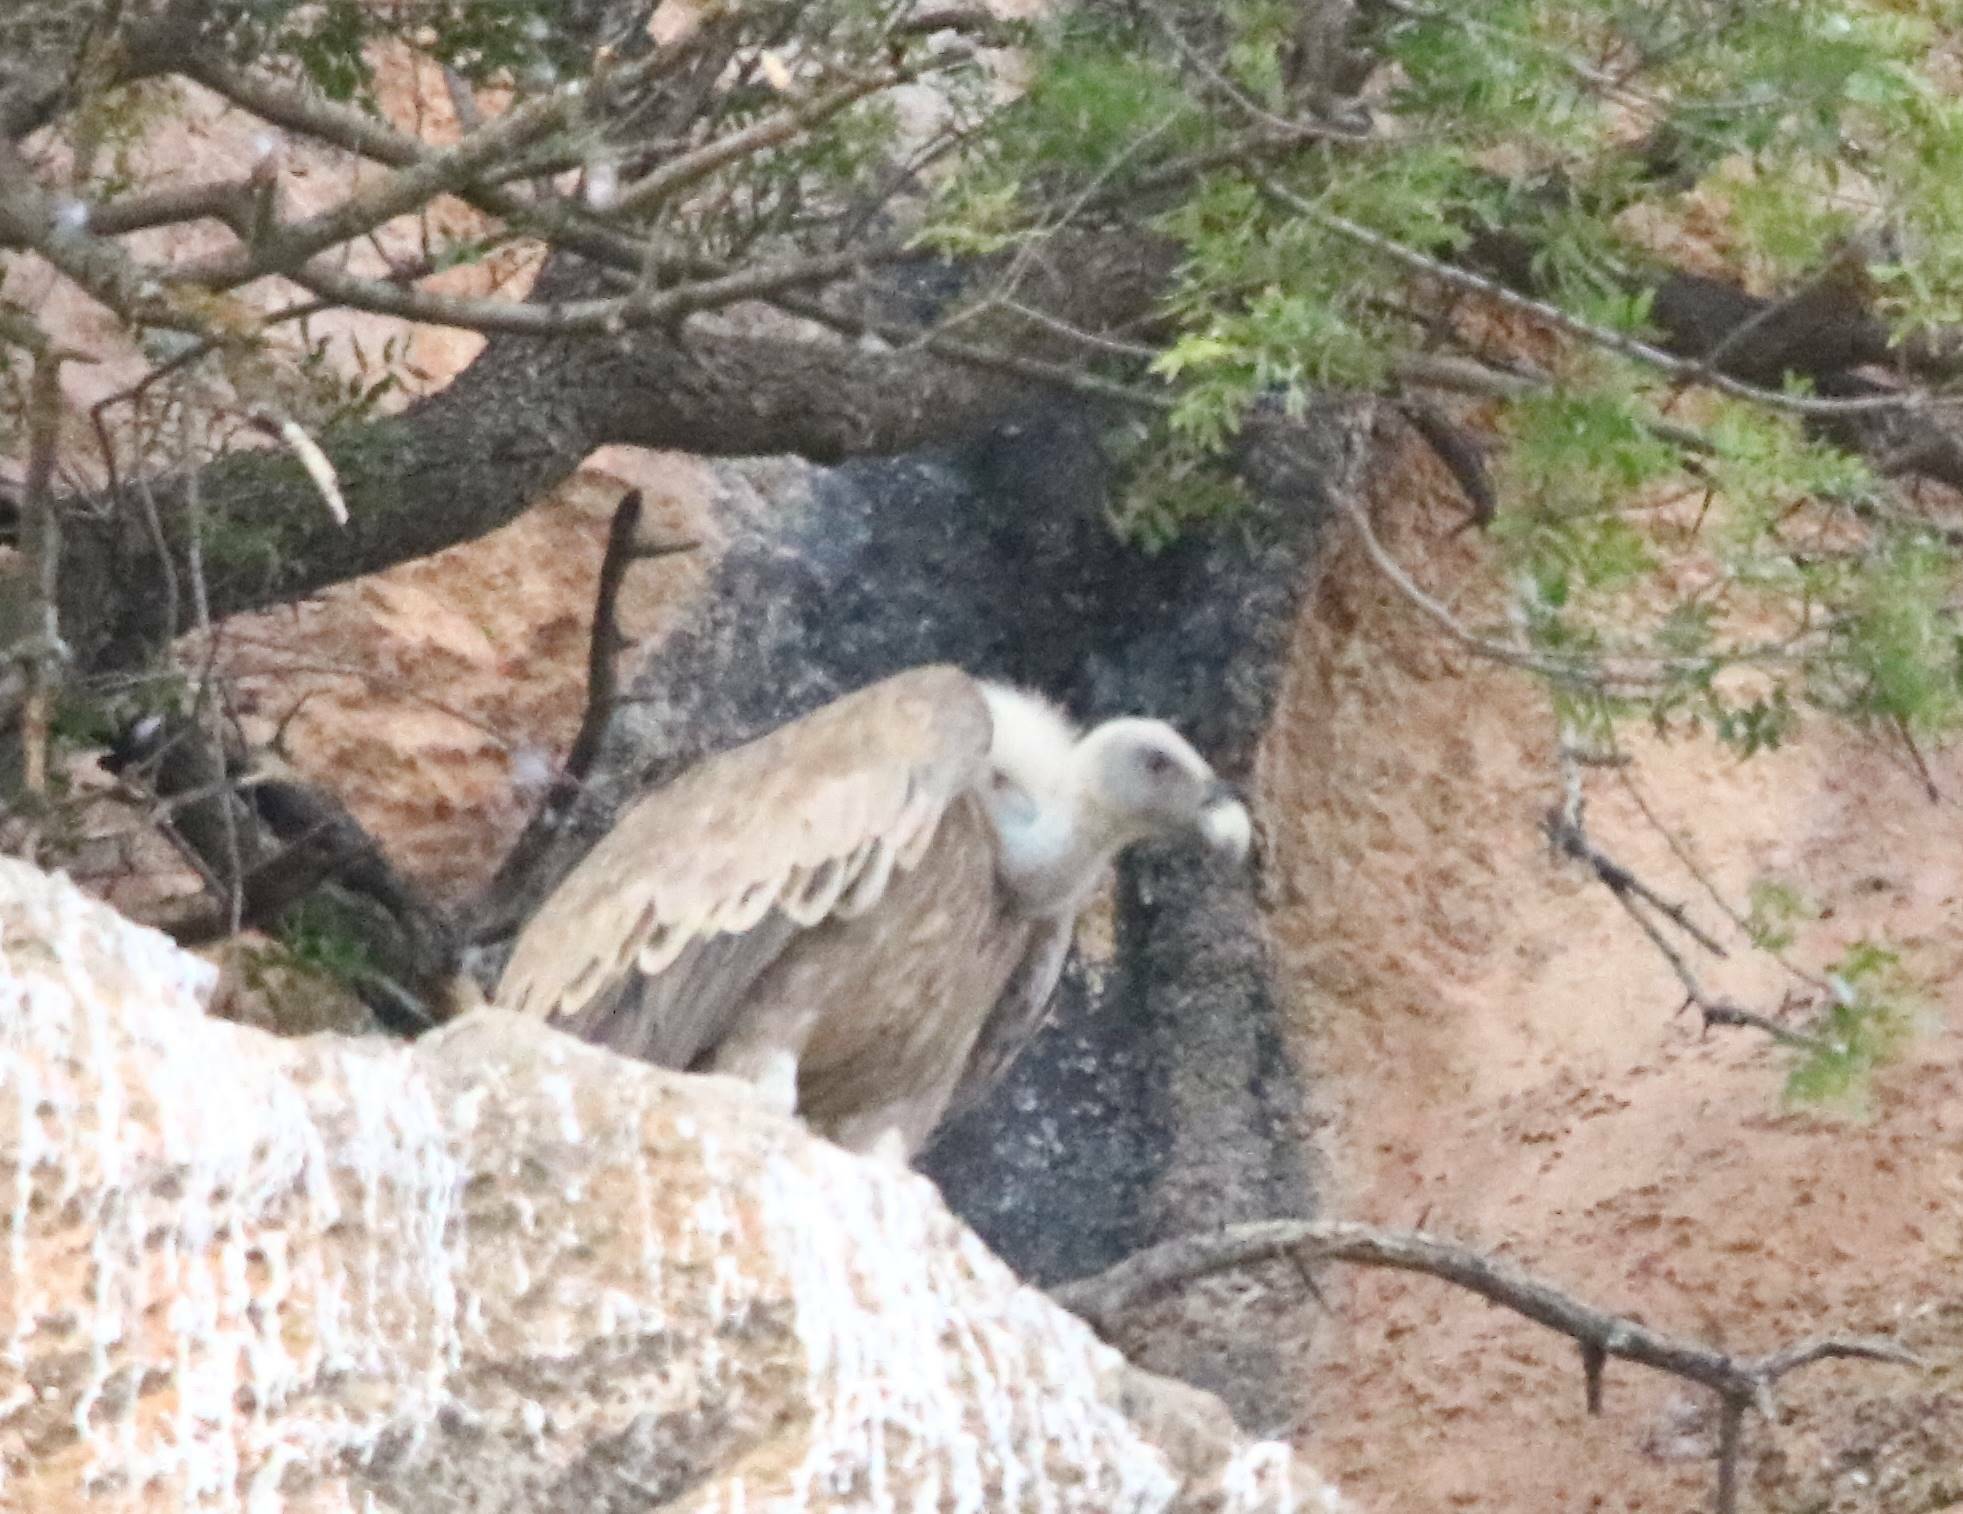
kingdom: Animalia
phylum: Chordata
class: Aves
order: Accipitriformes
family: Accipitridae
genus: Gyps
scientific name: Gyps fulvus
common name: Griffon vulture
